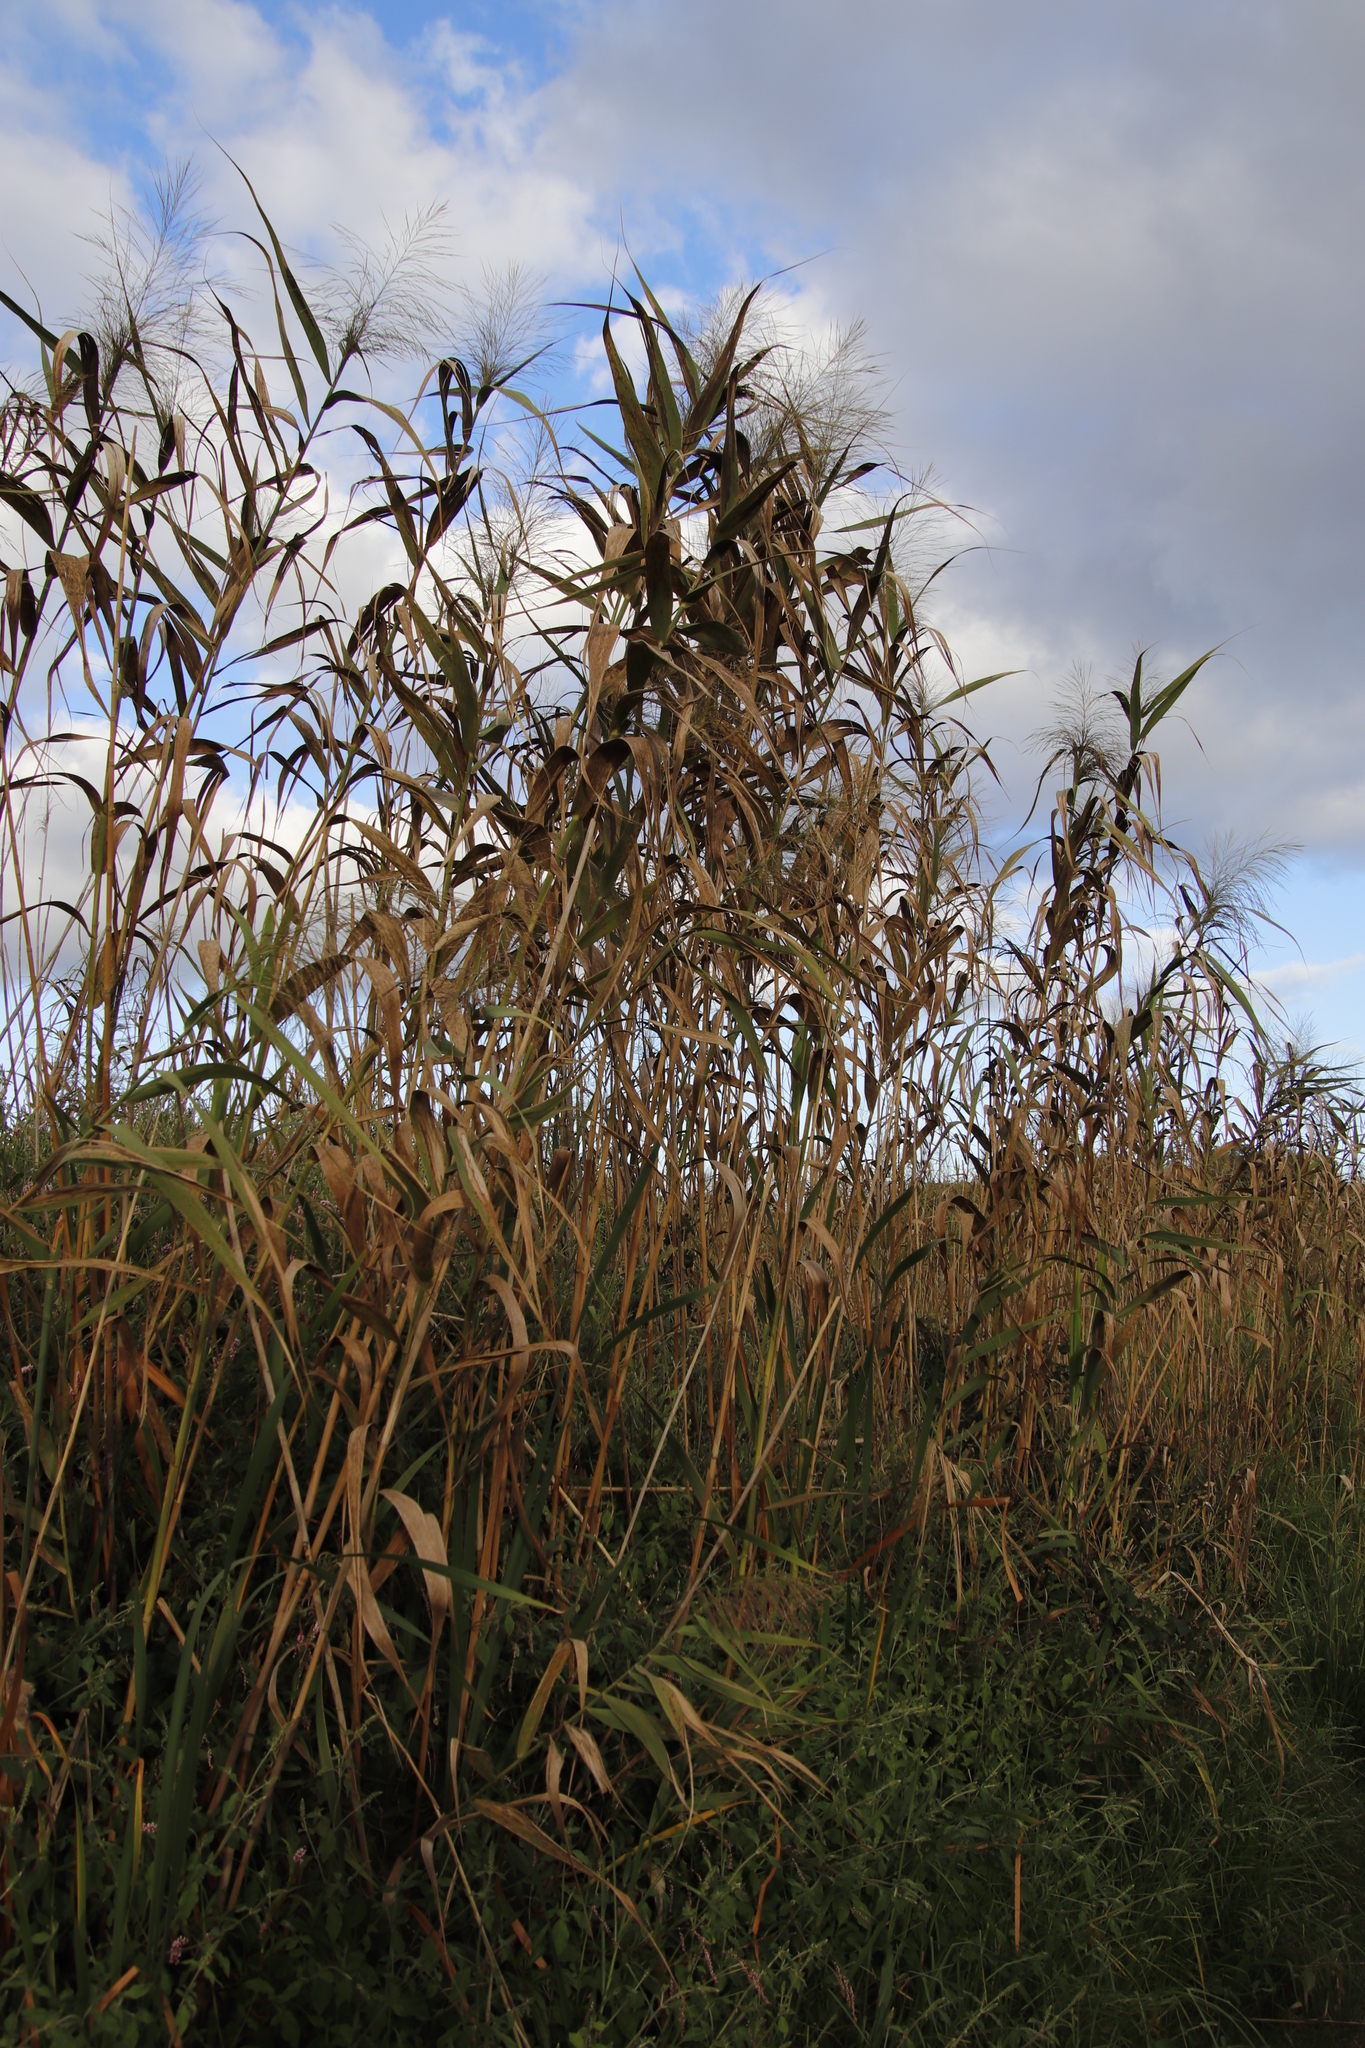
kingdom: Plantae
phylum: Tracheophyta
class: Liliopsida
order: Poales
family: Poaceae
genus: Phragmites
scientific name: Phragmites australis
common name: Common reed
